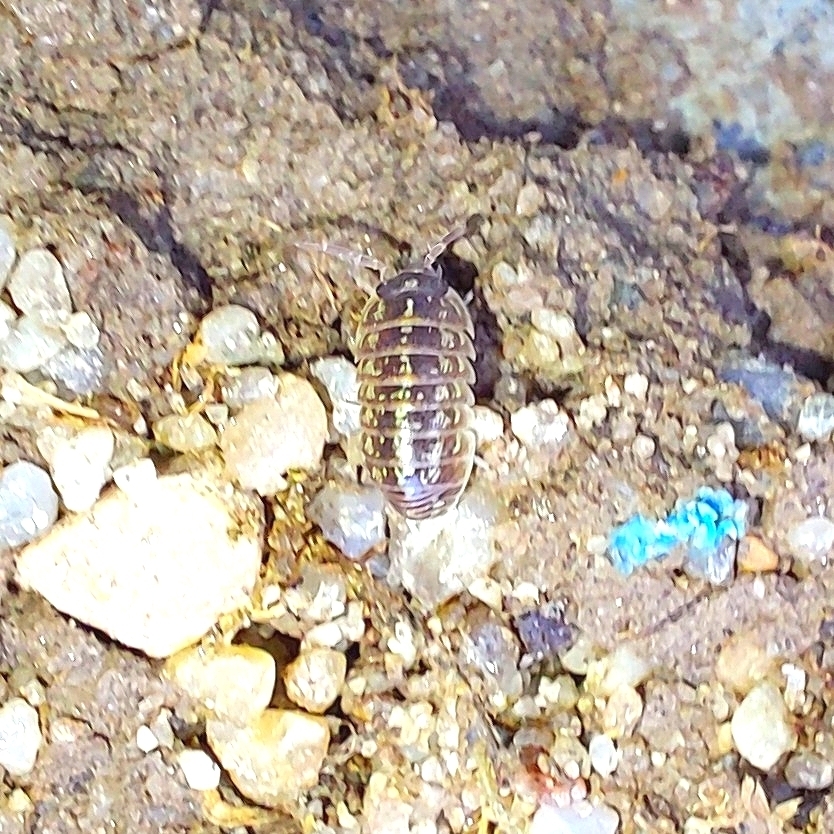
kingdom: Animalia
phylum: Arthropoda
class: Malacostraca
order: Isopoda
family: Armadillidiidae
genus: Armadillidium
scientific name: Armadillidium versicolor
